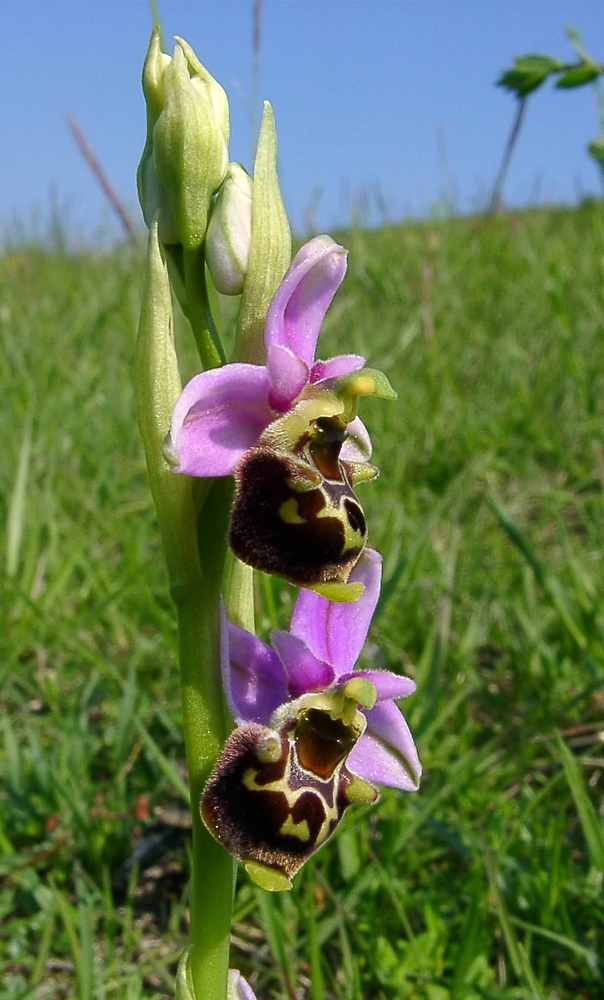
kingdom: Plantae
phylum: Tracheophyta
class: Liliopsida
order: Asparagales
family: Orchidaceae
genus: Ophrys
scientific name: Ophrys holosericea
